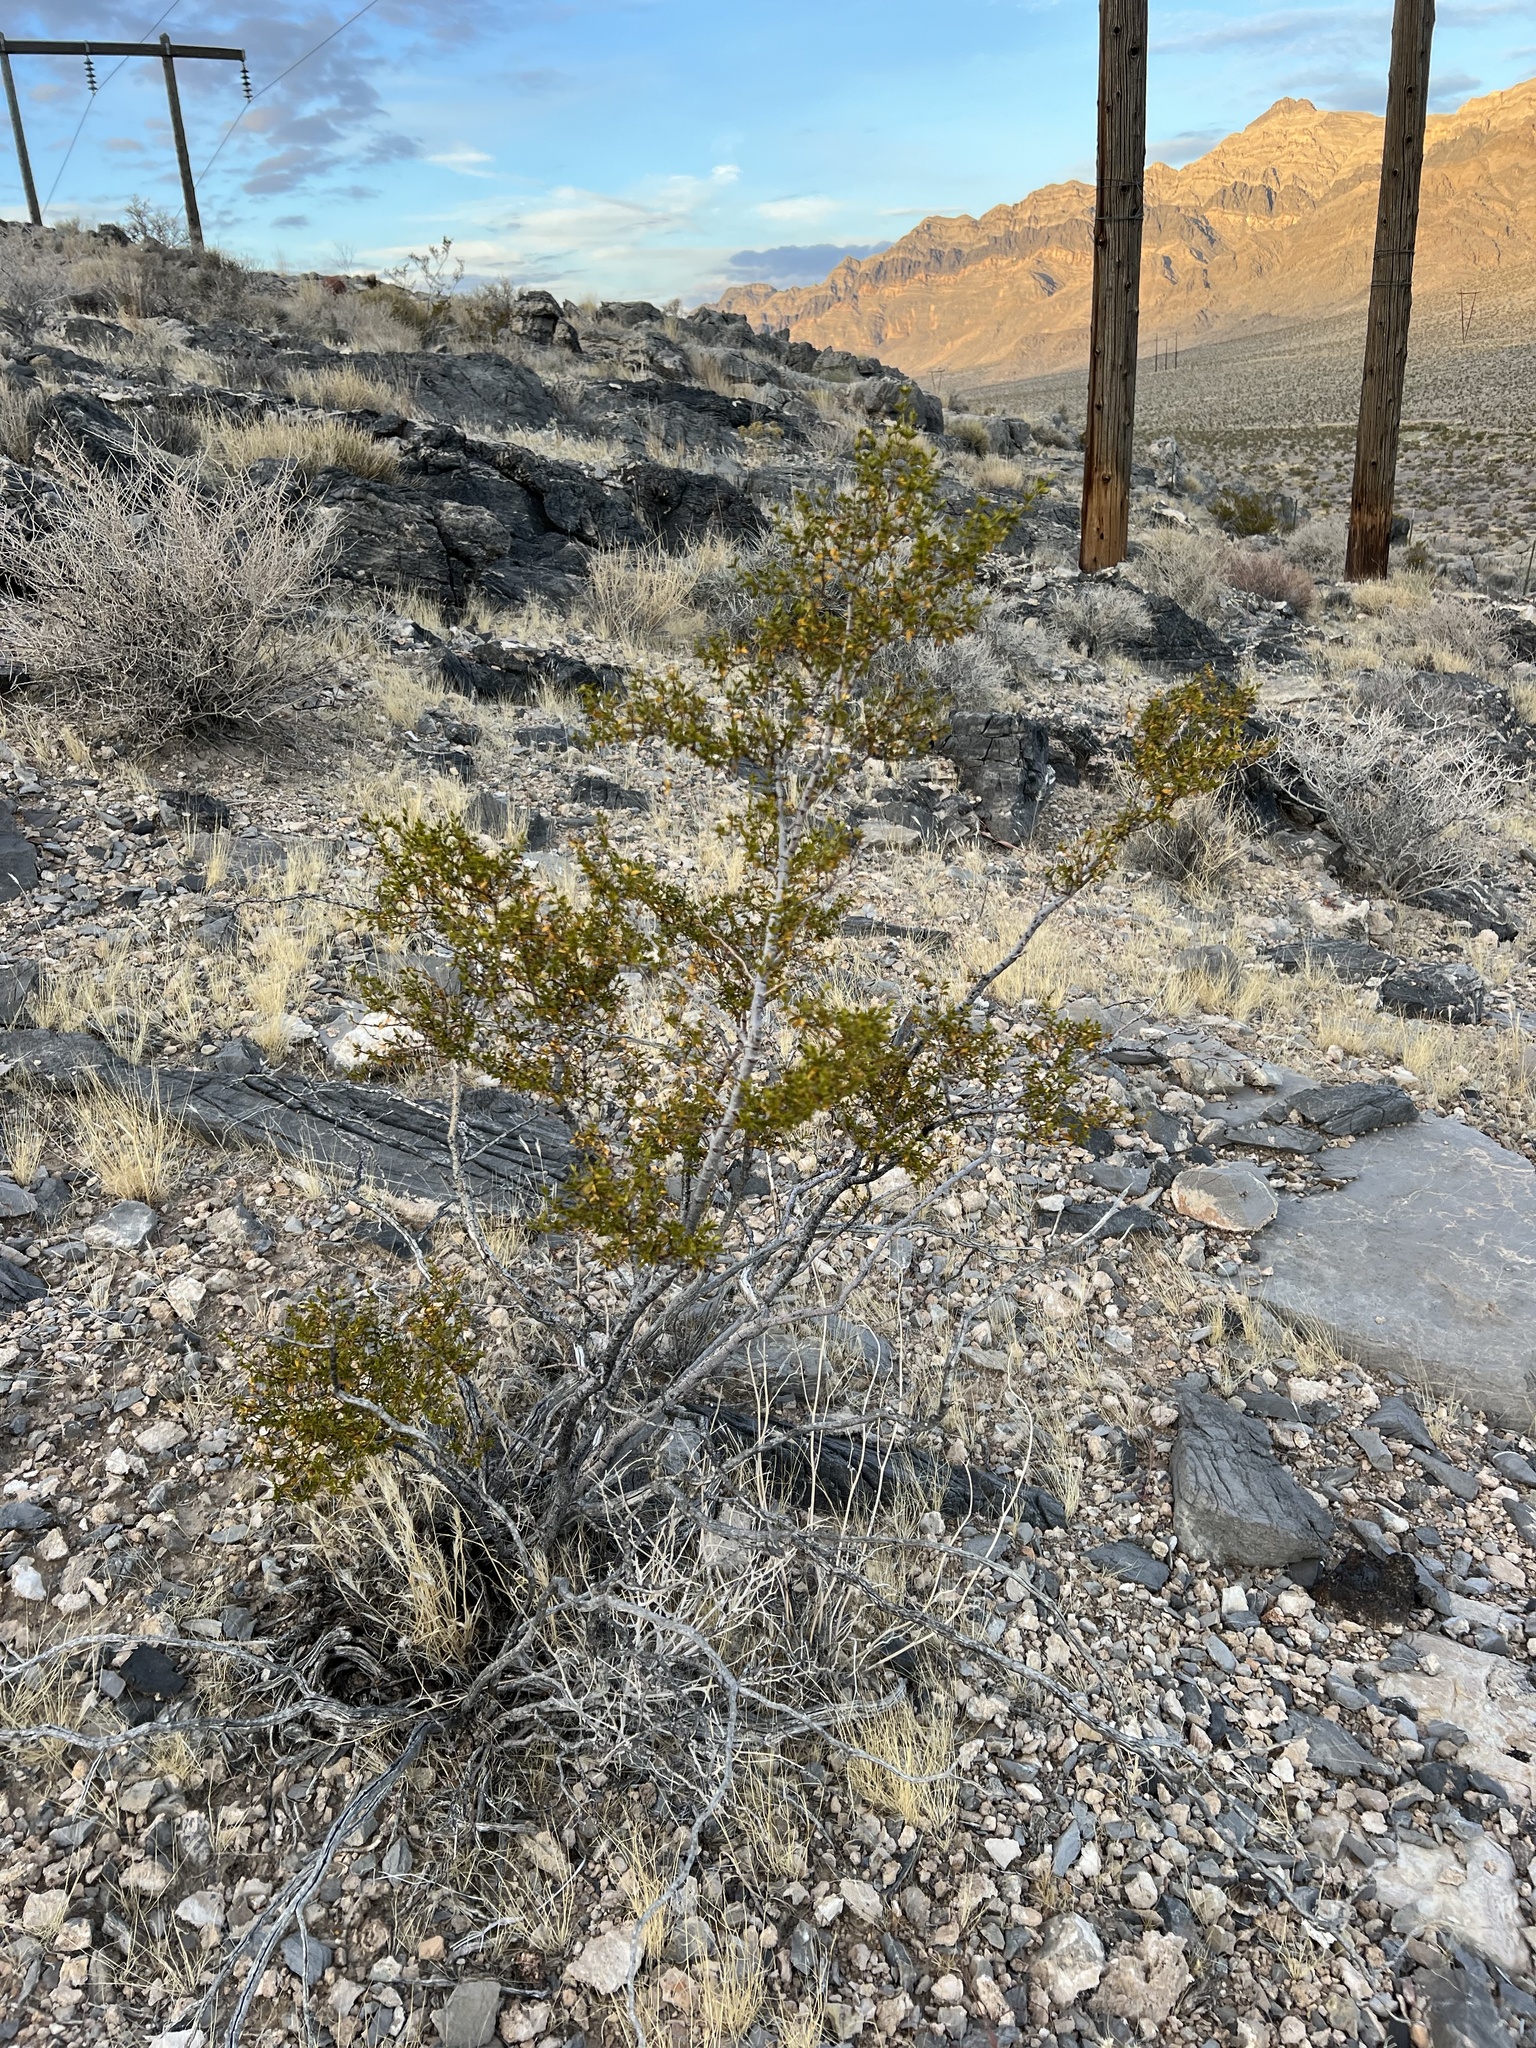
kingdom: Plantae
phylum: Tracheophyta
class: Magnoliopsida
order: Zygophyllales
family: Zygophyllaceae
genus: Larrea
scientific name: Larrea tridentata
